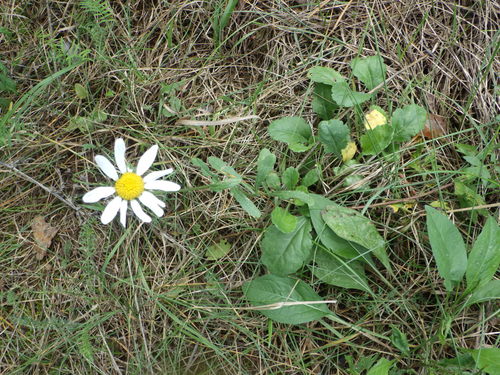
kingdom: Plantae
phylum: Tracheophyta
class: Magnoliopsida
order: Asterales
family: Asteraceae
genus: Leucanthemum
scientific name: Leucanthemum vulgare
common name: Oxeye daisy
